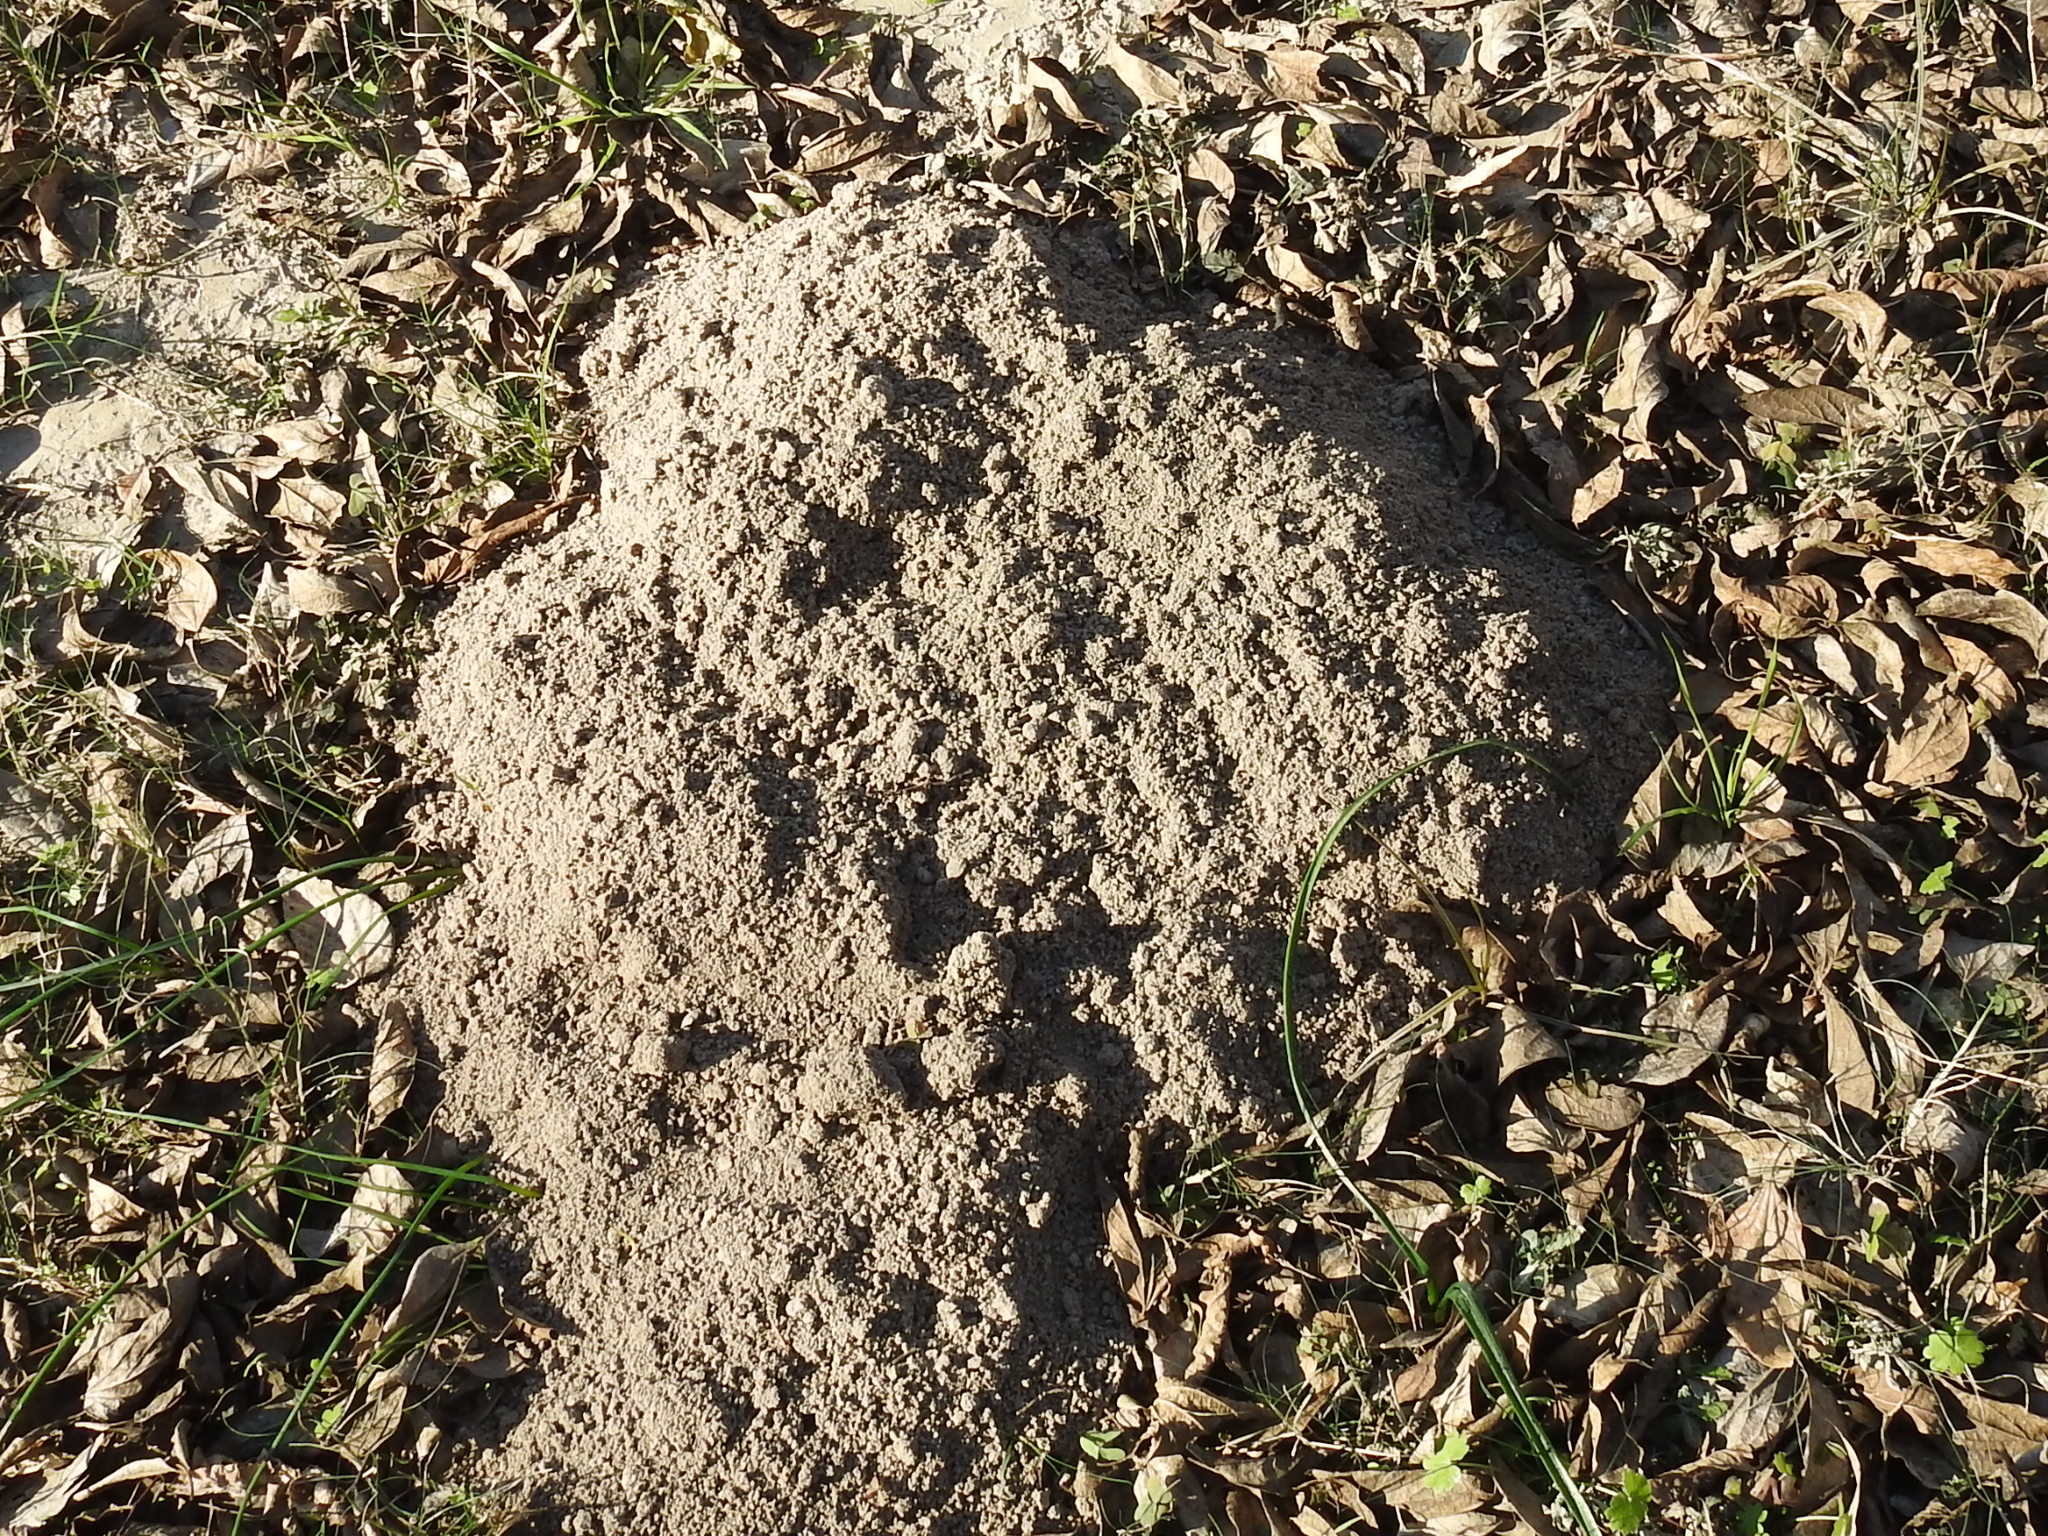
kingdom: Animalia
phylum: Chordata
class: Mammalia
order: Rodentia
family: Geomyidae
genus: Geomys
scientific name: Geomys attwateri
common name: Attwater's pocket gopher
